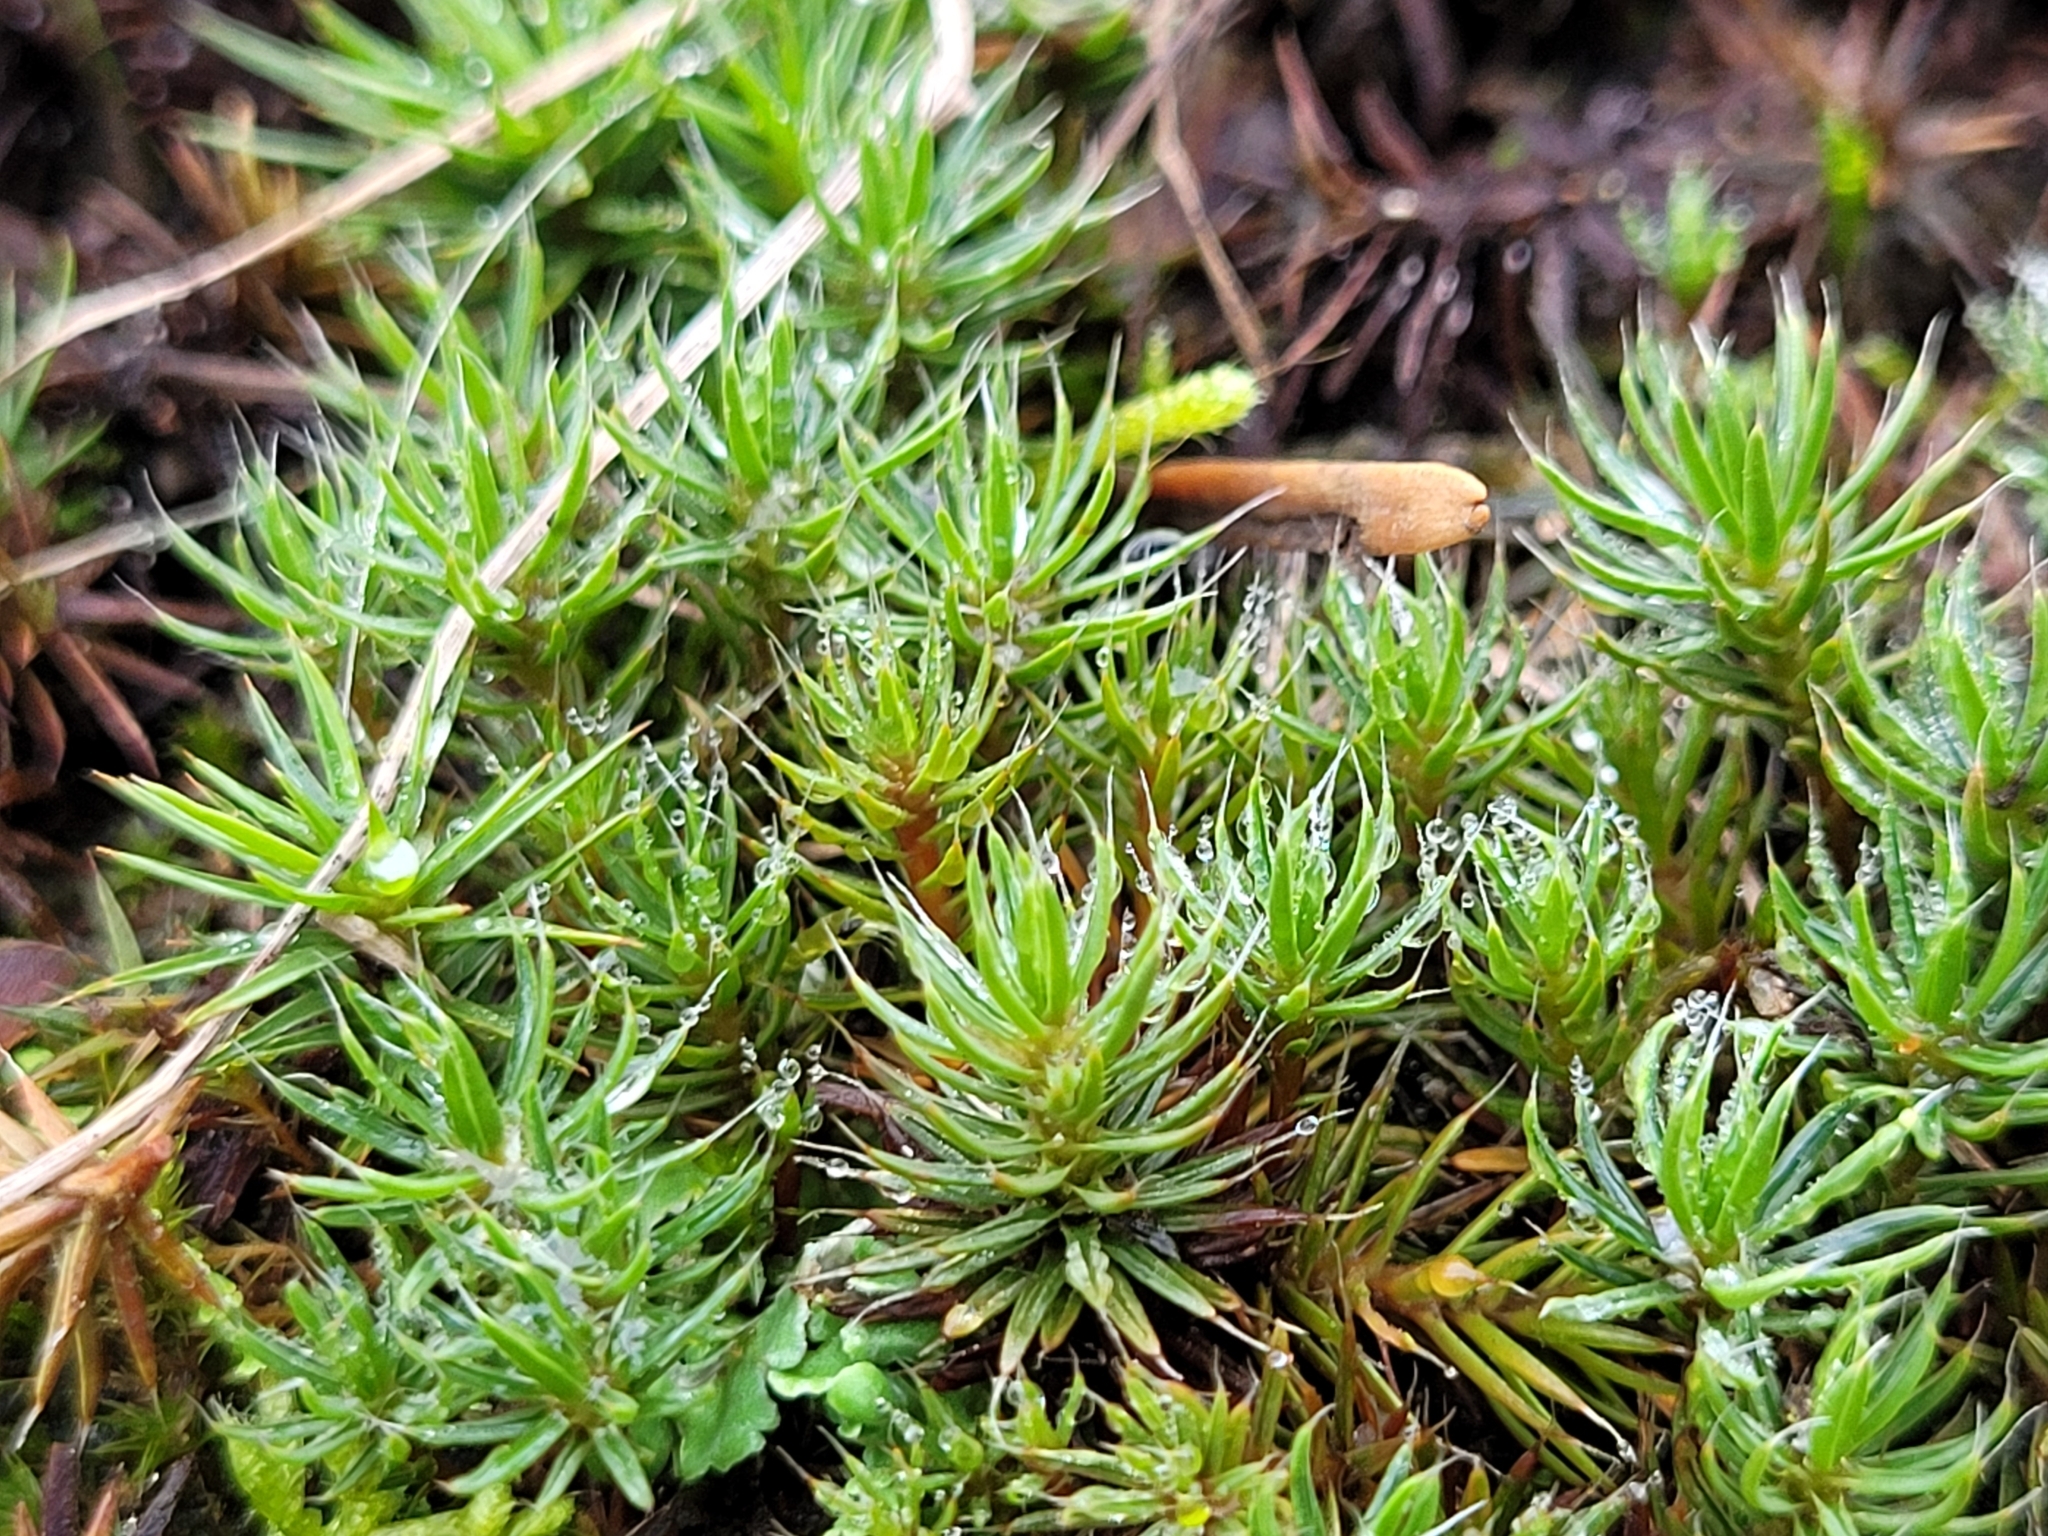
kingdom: Plantae
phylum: Bryophyta
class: Polytrichopsida
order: Polytrichales
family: Polytrichaceae
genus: Polytrichum
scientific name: Polytrichum piliferum
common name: Bristly haircap
